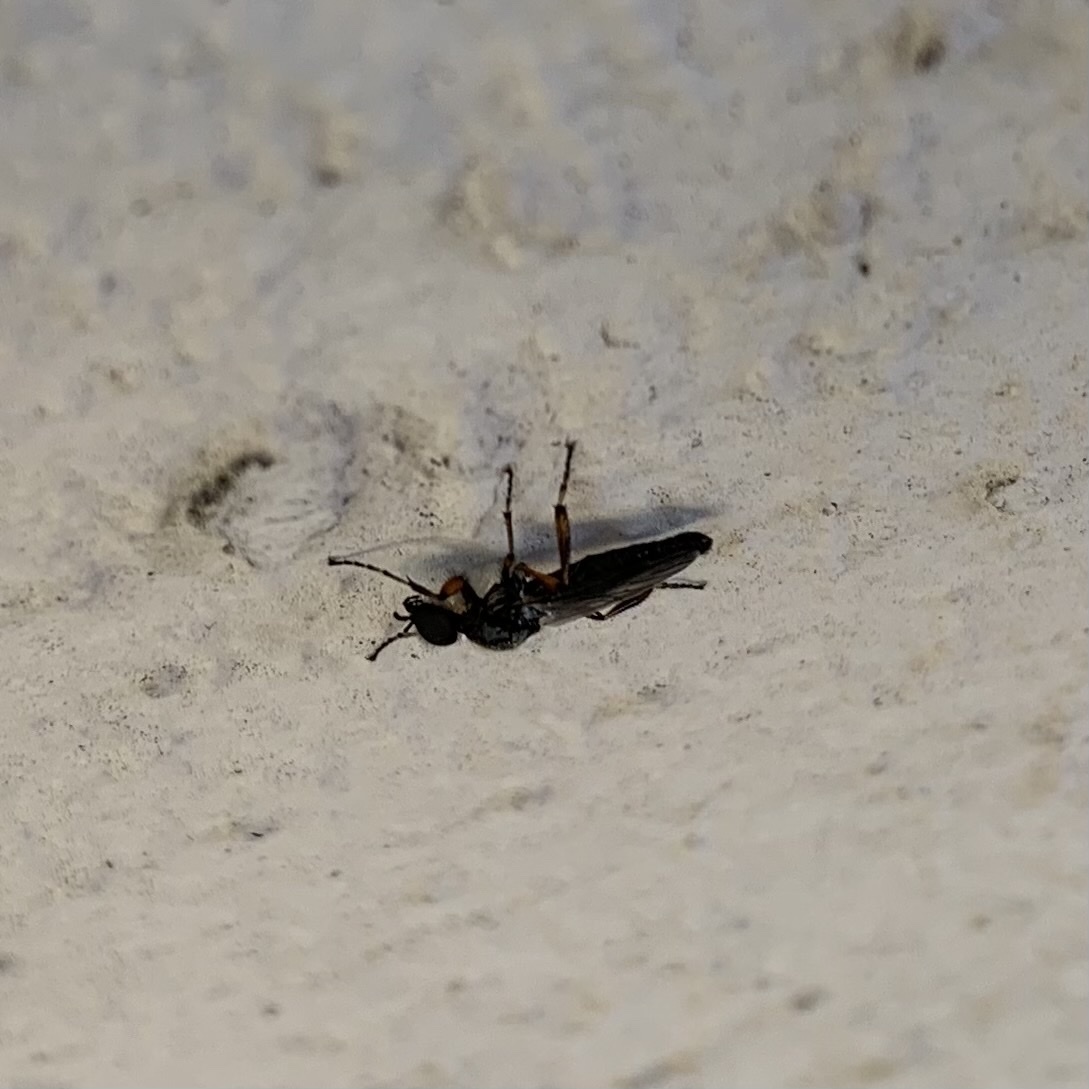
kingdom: Animalia
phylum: Arthropoda
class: Insecta
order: Diptera
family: Bibionidae
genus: Bibio
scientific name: Bibio
